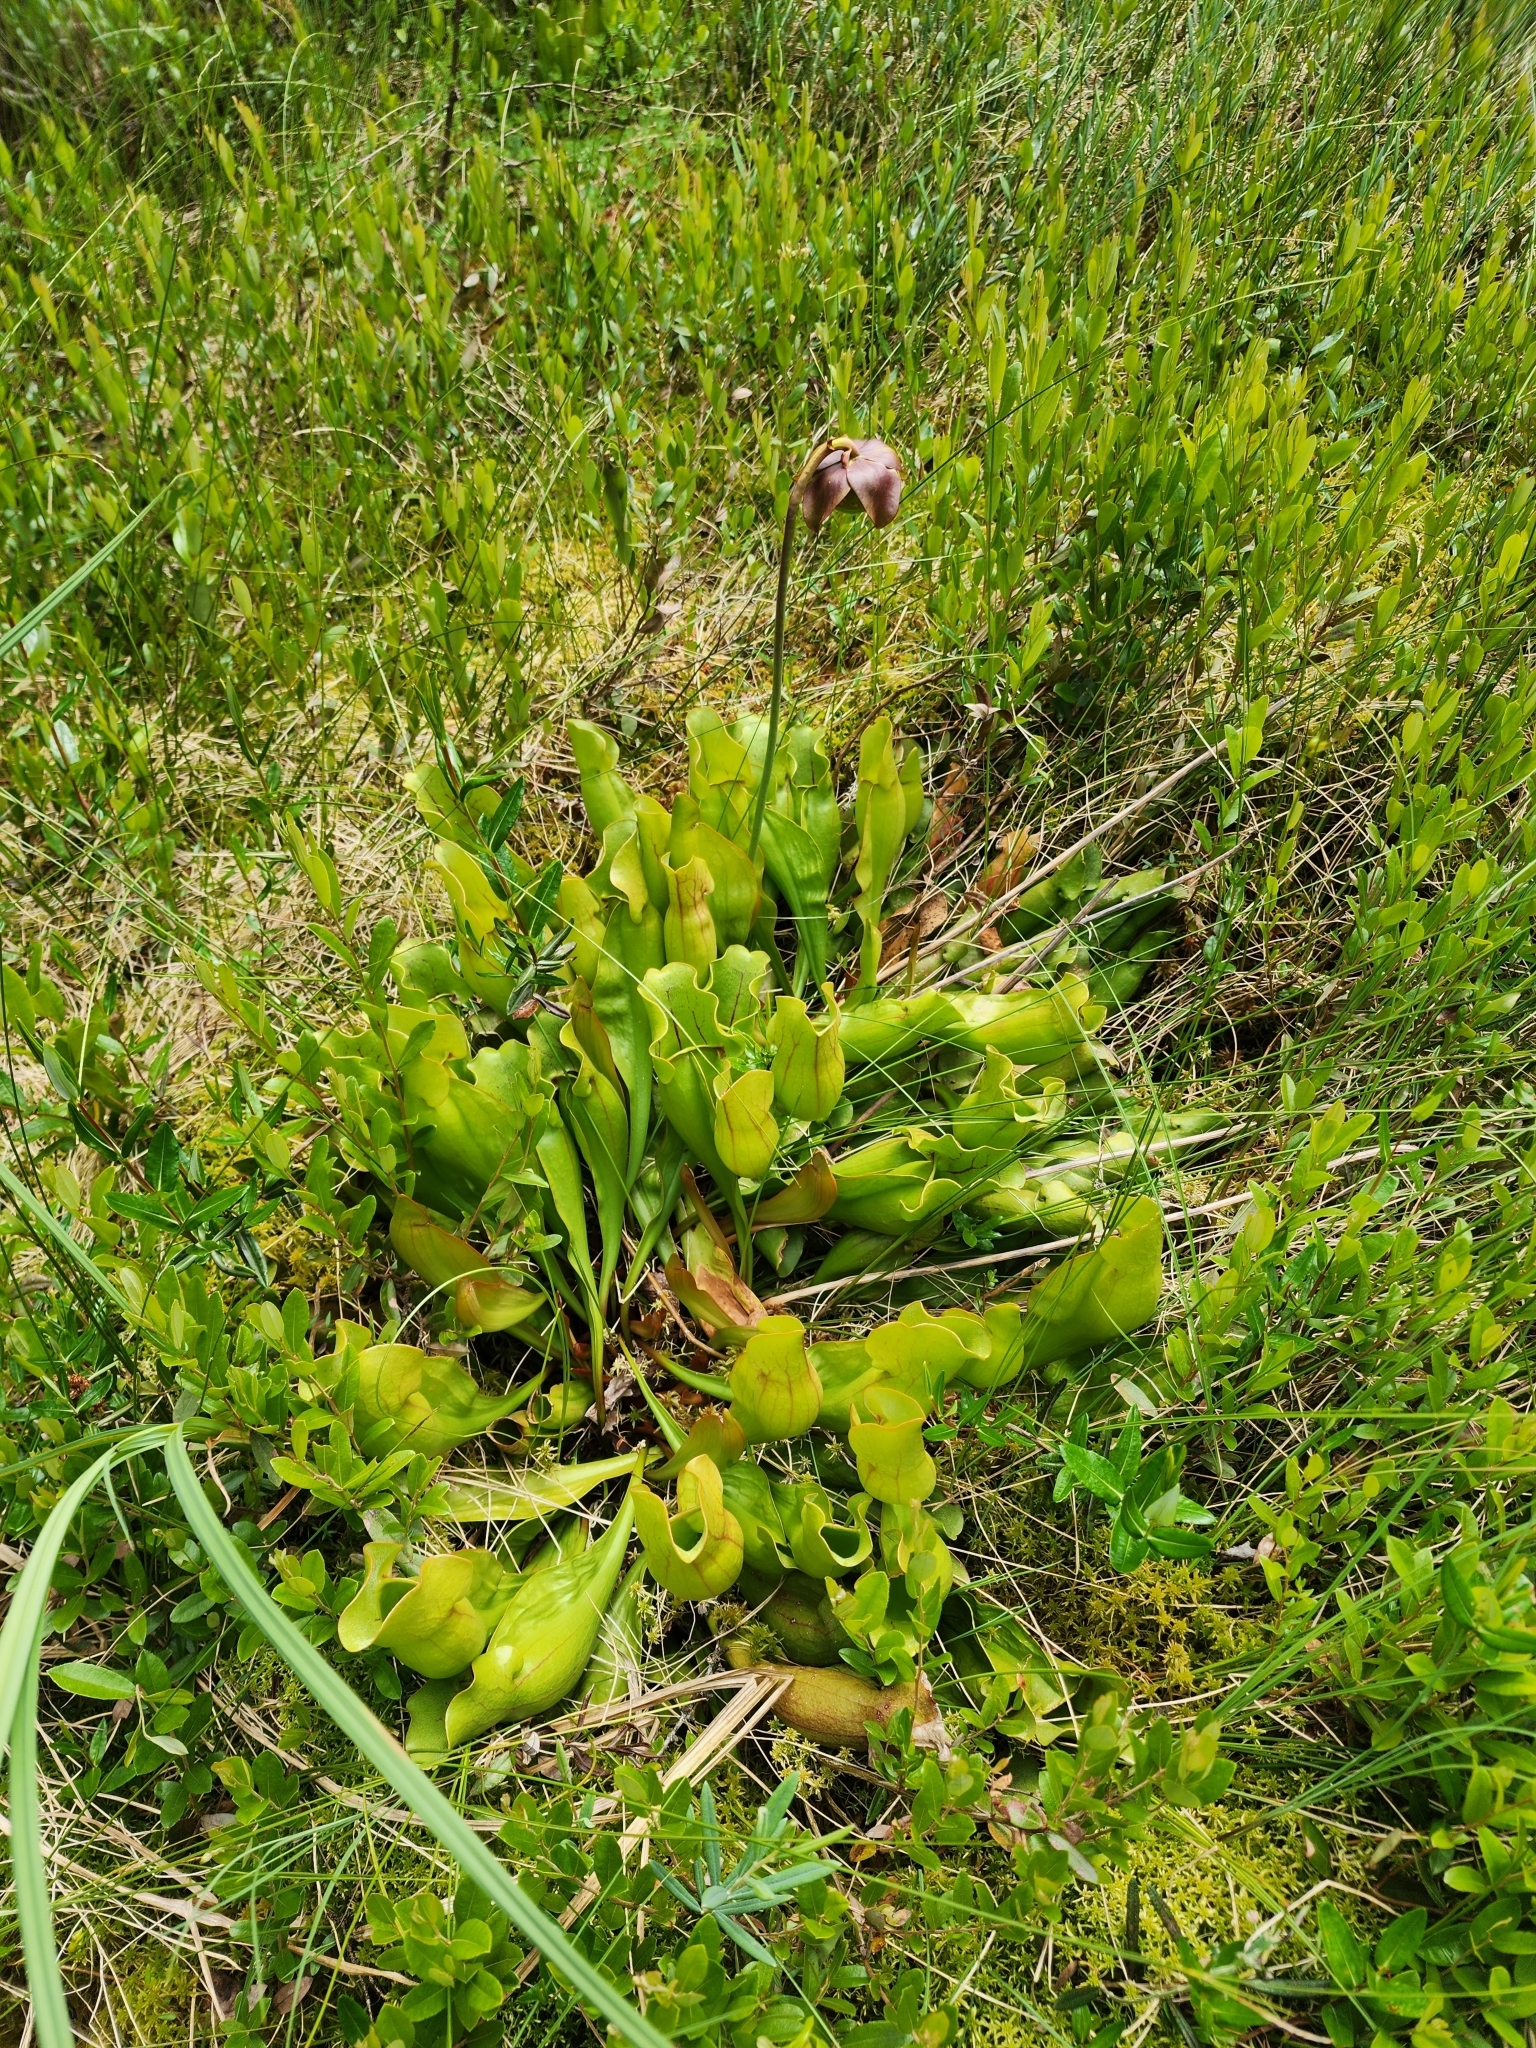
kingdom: Plantae
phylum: Tracheophyta
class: Magnoliopsida
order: Ericales
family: Sarraceniaceae
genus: Sarracenia
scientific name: Sarracenia purpurea
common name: Pitcherplant
